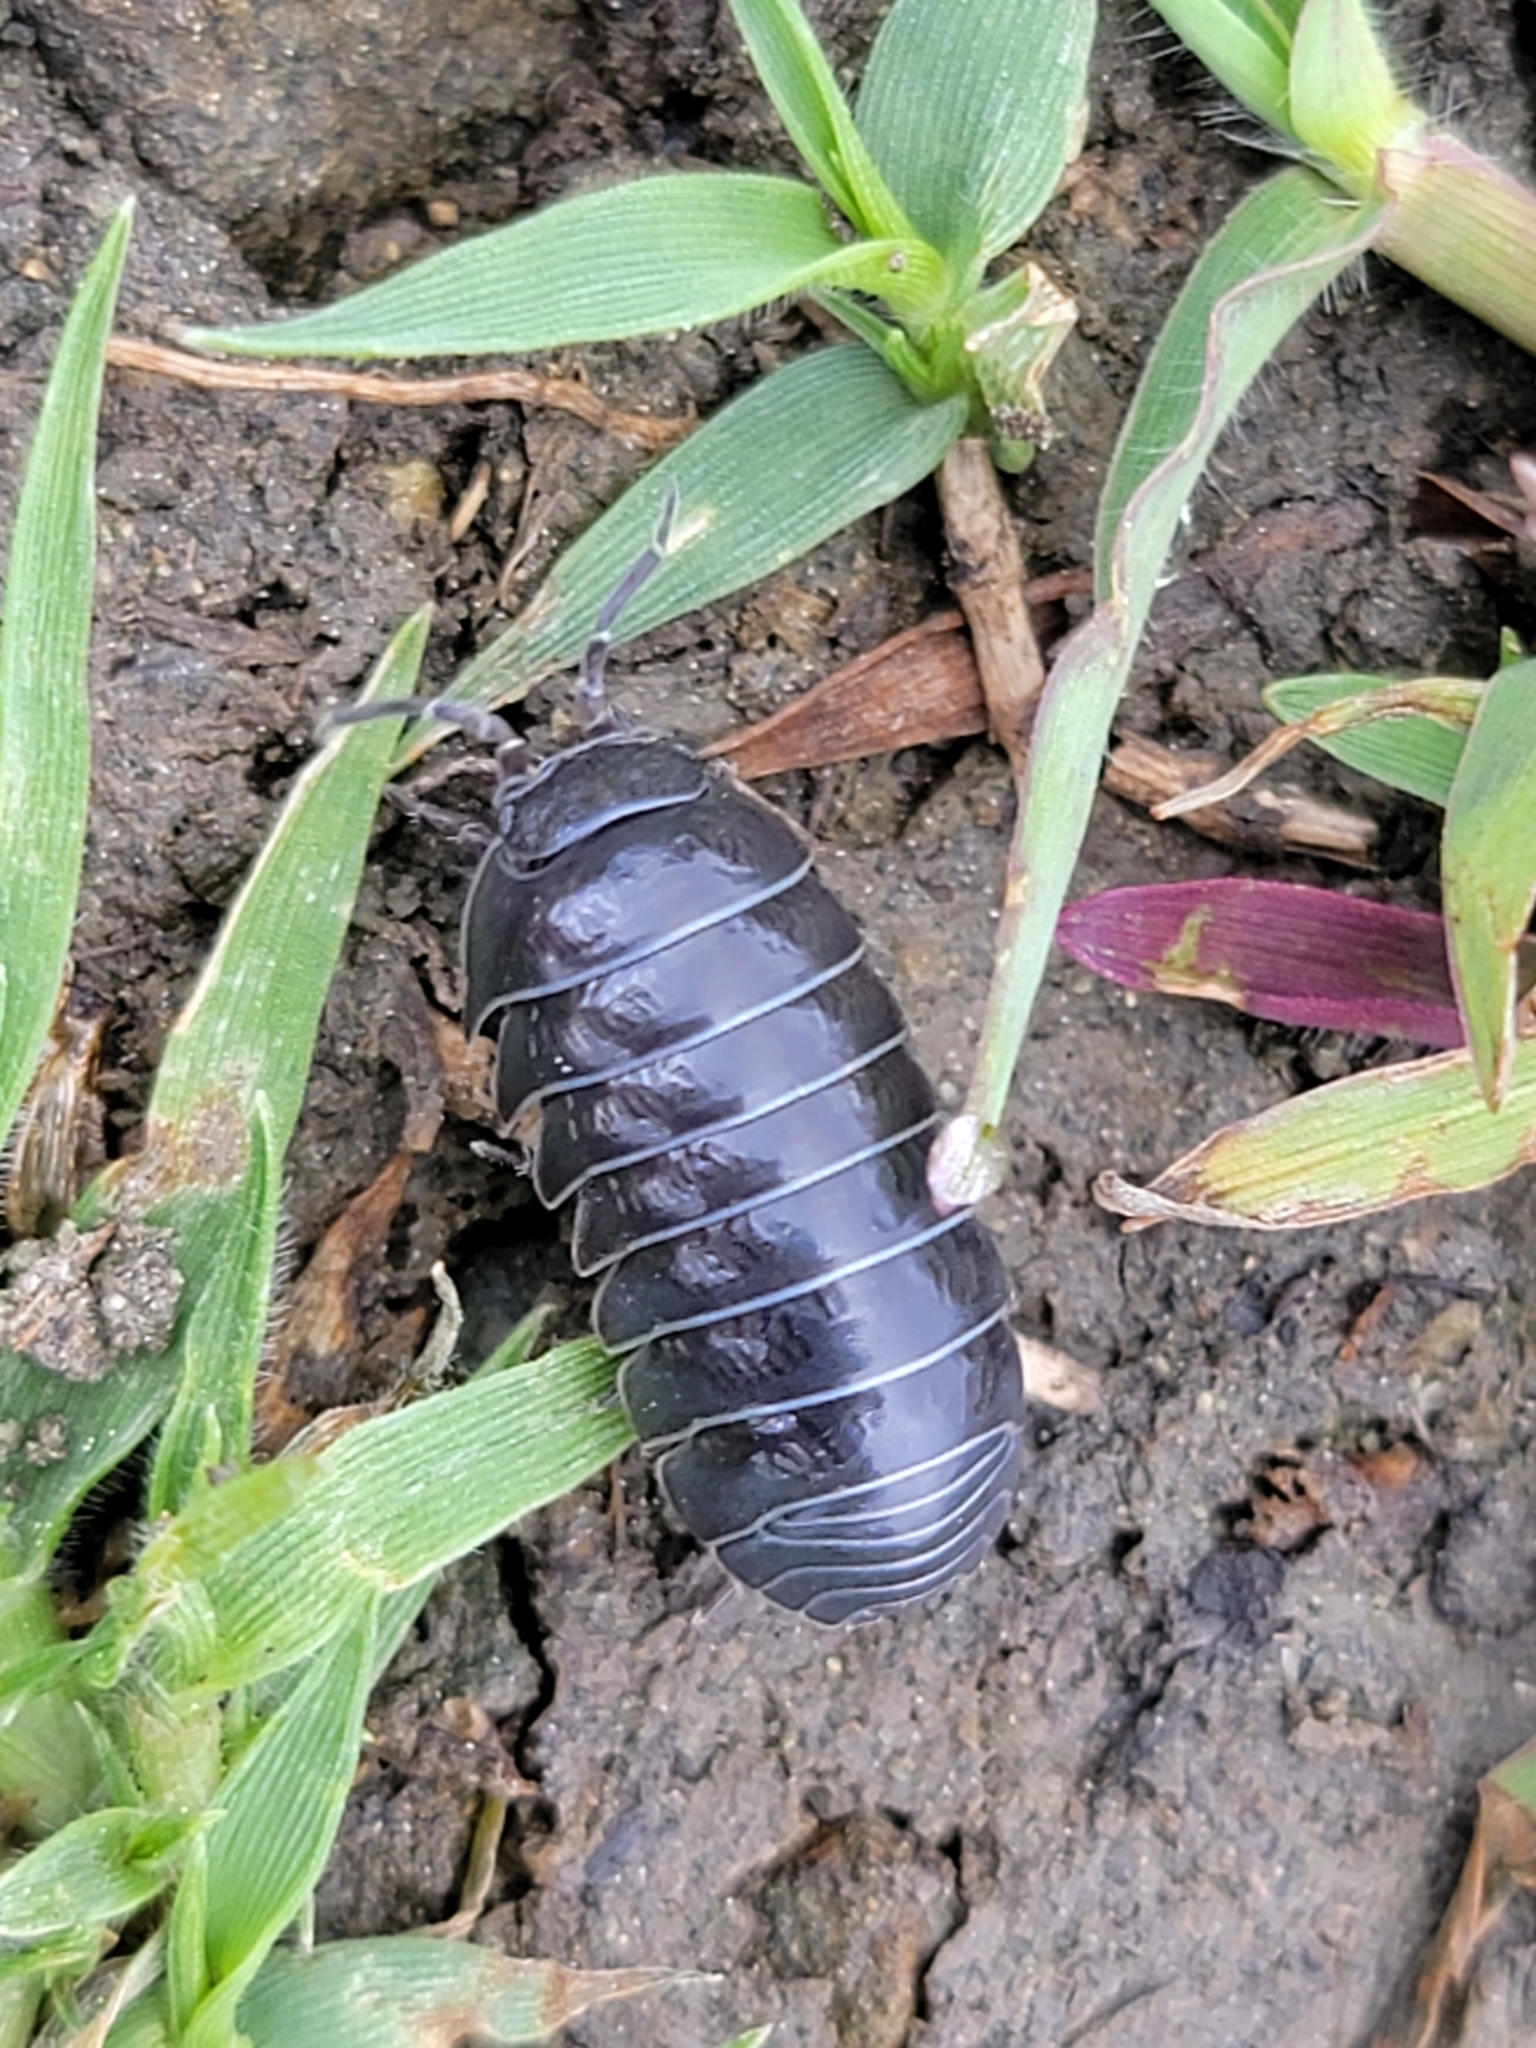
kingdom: Animalia
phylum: Arthropoda
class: Malacostraca
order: Isopoda
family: Armadillidiidae
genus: Armadillidium
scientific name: Armadillidium vulgare
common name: Common pill woodlouse
